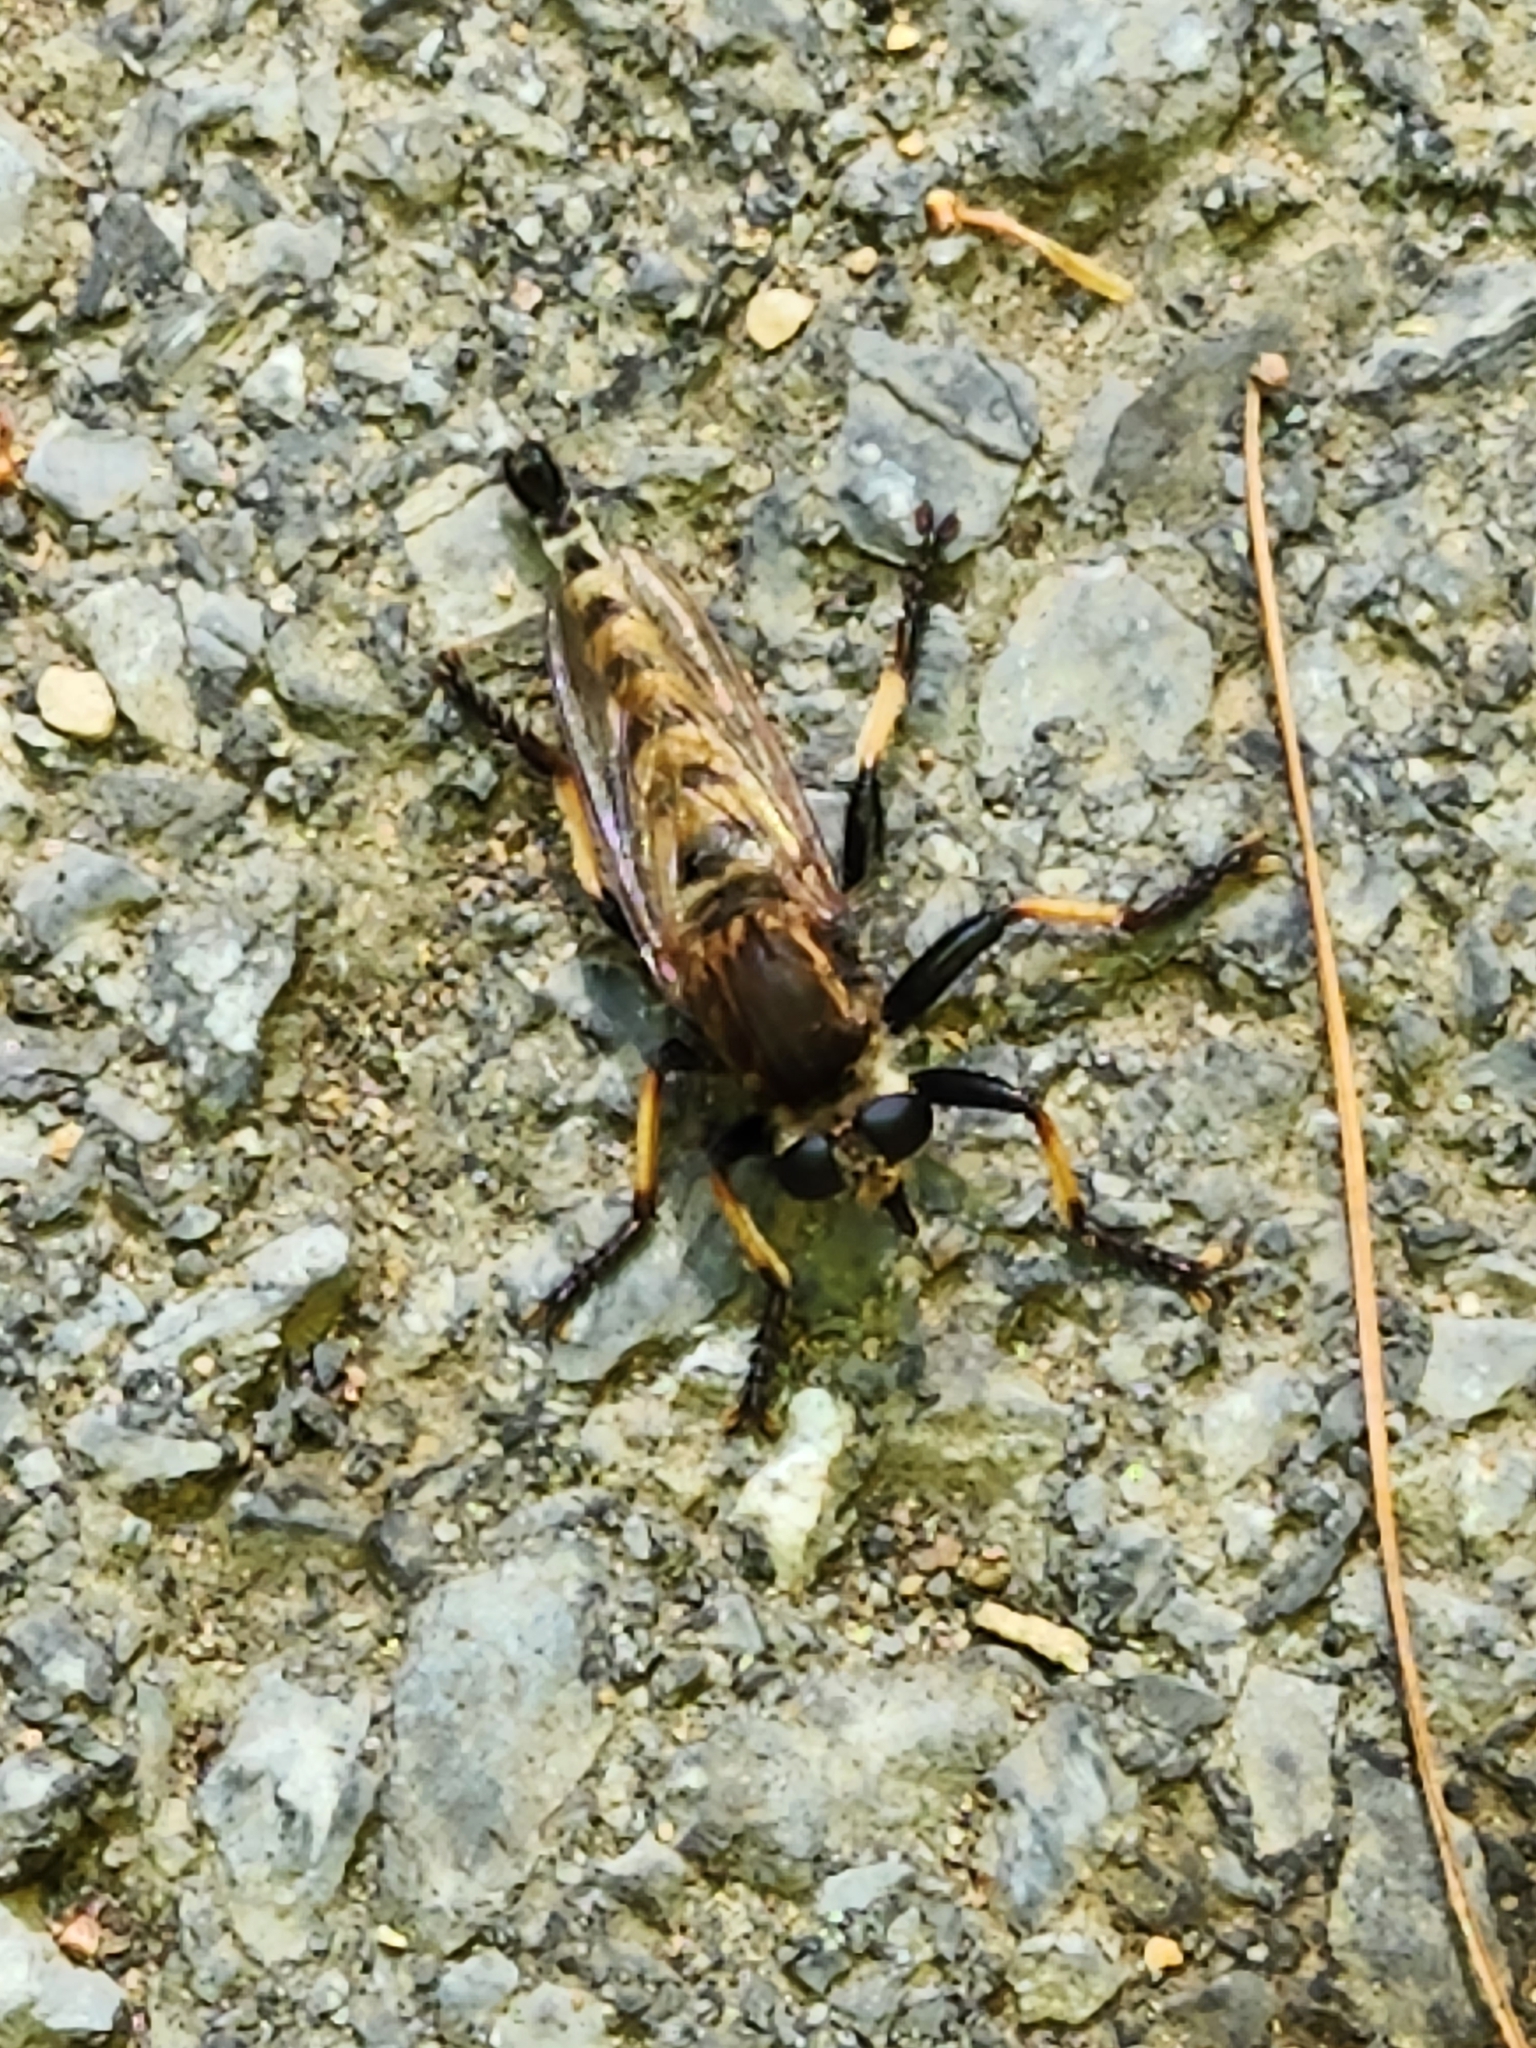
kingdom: Animalia
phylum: Arthropoda
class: Insecta
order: Diptera
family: Asilidae
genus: Promachus
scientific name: Promachus rufipes
